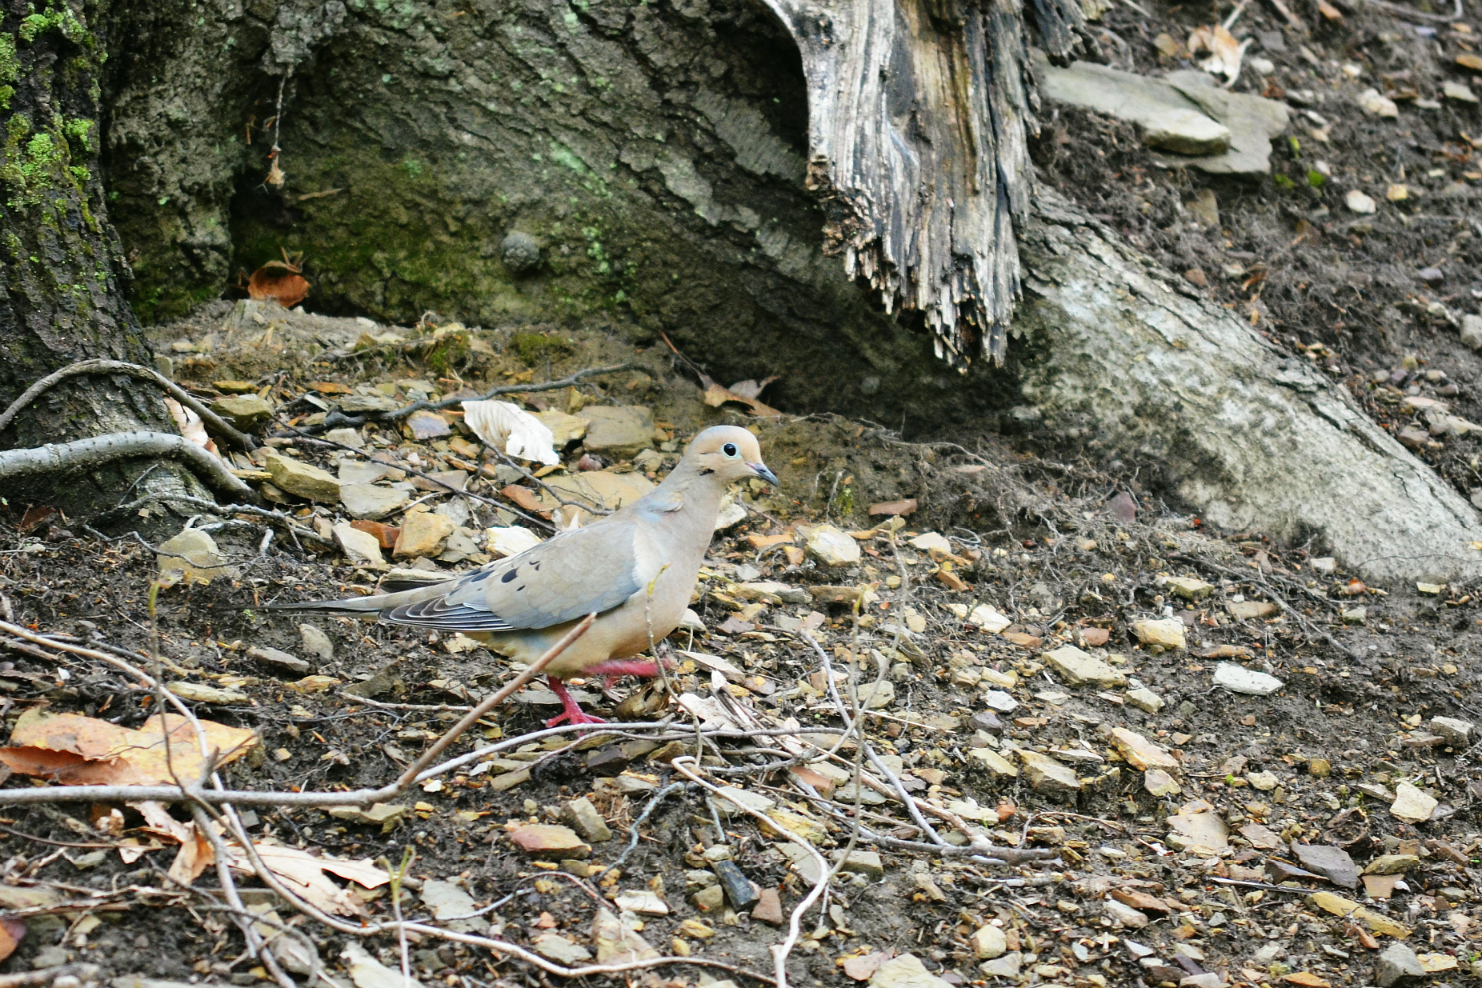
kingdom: Animalia
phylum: Chordata
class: Aves
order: Columbiformes
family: Columbidae
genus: Zenaida
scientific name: Zenaida macroura
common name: Mourning dove
